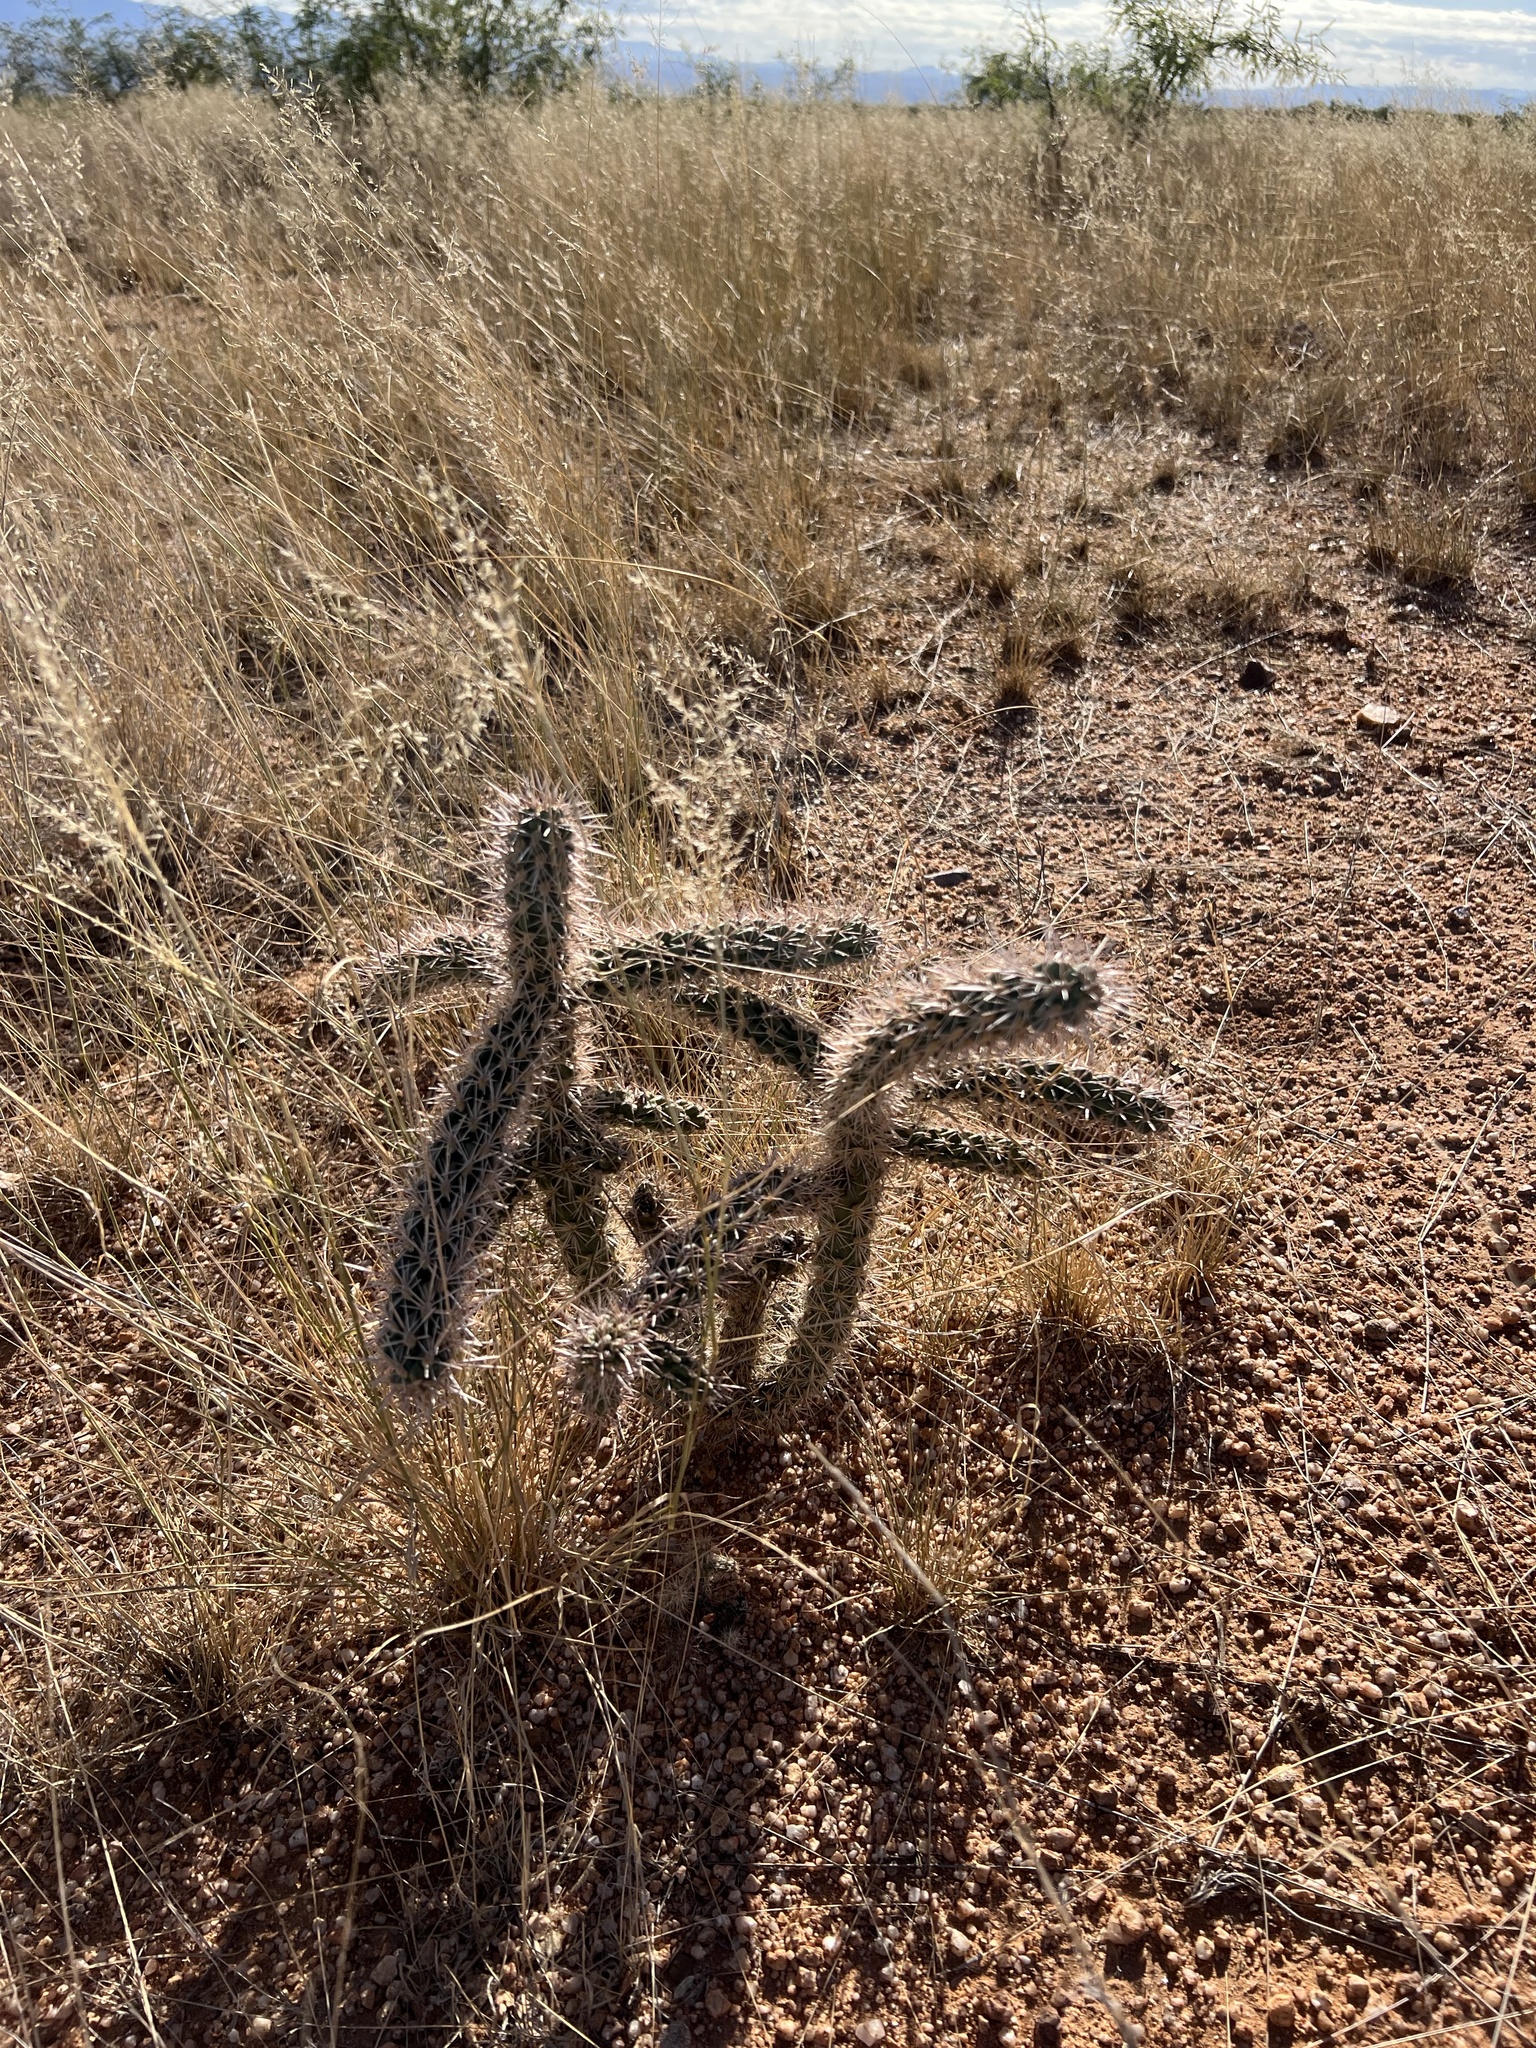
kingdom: Plantae
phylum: Tracheophyta
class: Magnoliopsida
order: Caryophyllales
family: Cactaceae
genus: Cylindropuntia
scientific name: Cylindropuntia imbricata
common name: Candelabrum cactus
